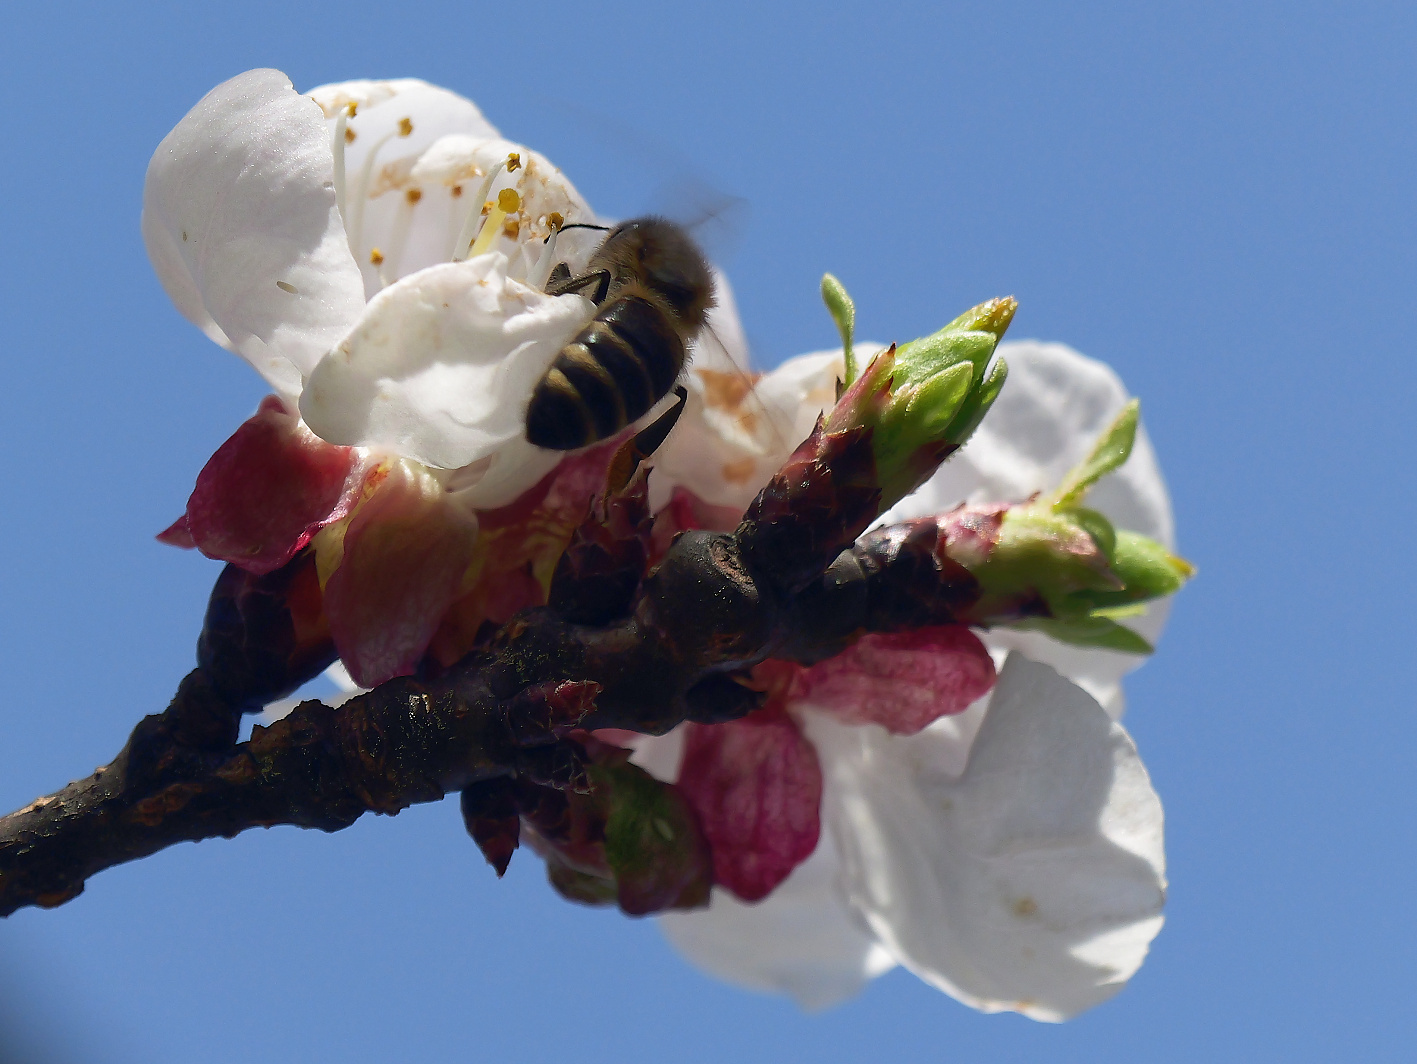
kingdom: Animalia
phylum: Arthropoda
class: Insecta
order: Hymenoptera
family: Apidae
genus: Apis
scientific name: Apis mellifera
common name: Honey bee
